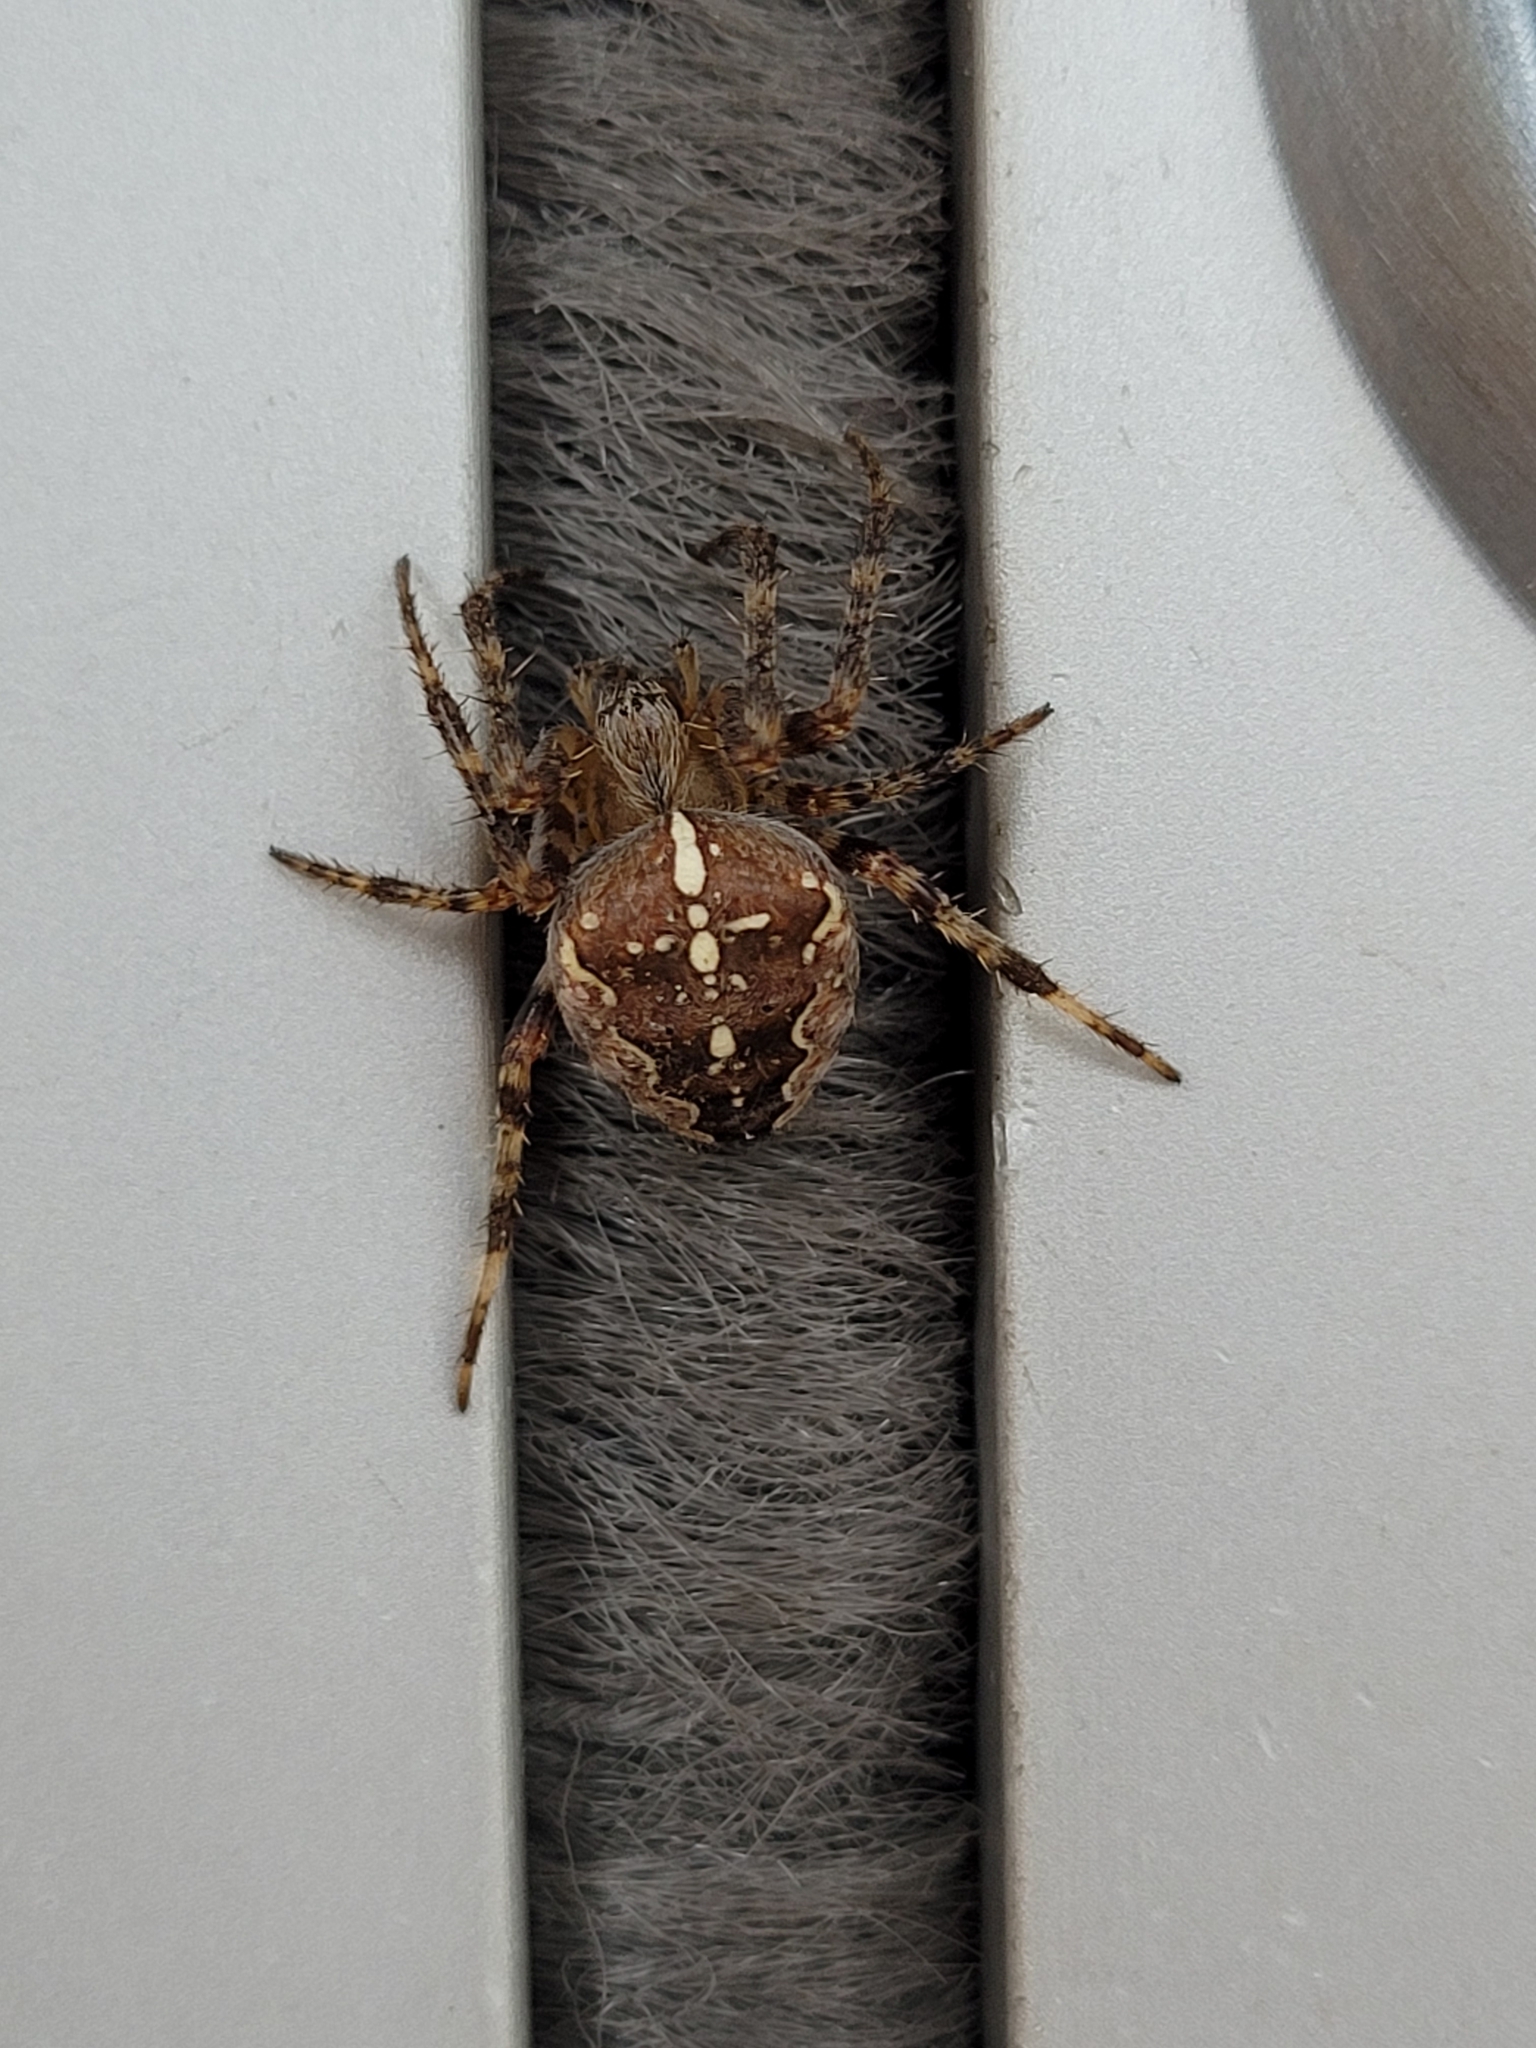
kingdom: Animalia
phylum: Arthropoda
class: Arachnida
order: Araneae
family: Araneidae
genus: Araneus
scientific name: Araneus diadematus
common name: Cross orbweaver
